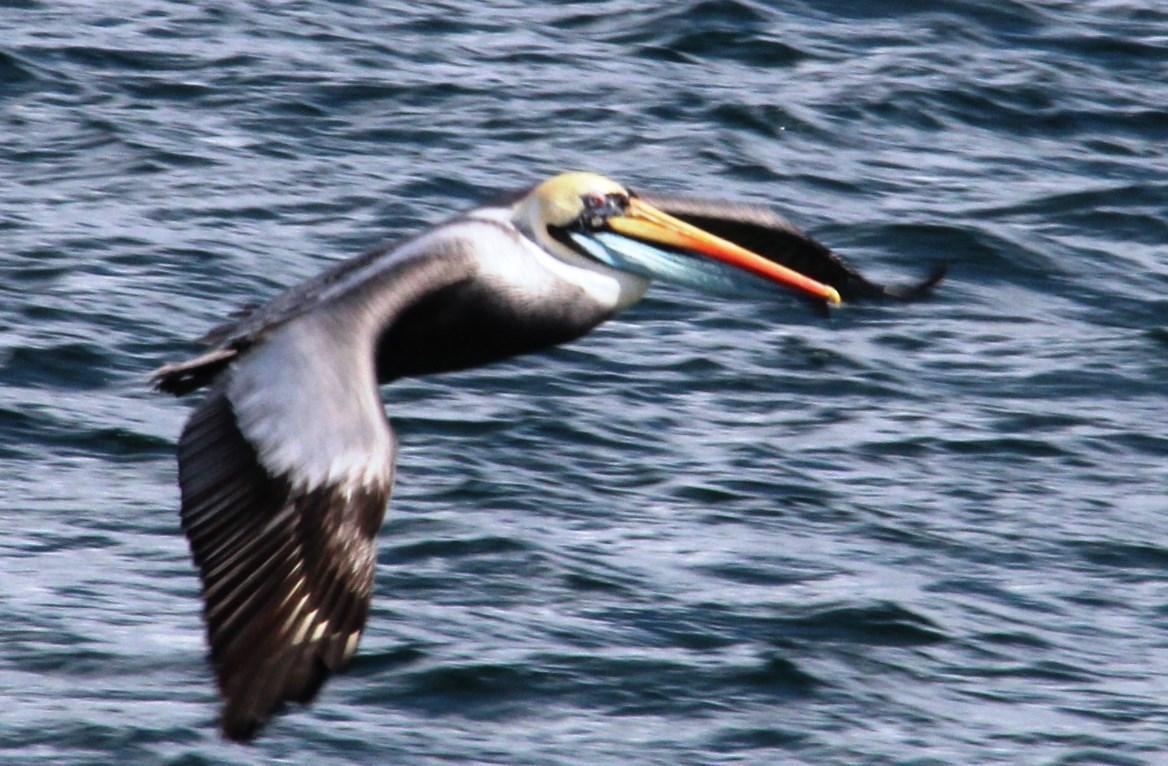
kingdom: Animalia
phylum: Chordata
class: Aves
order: Pelecaniformes
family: Pelecanidae
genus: Pelecanus
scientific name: Pelecanus thagus
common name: Peruvian pelican
